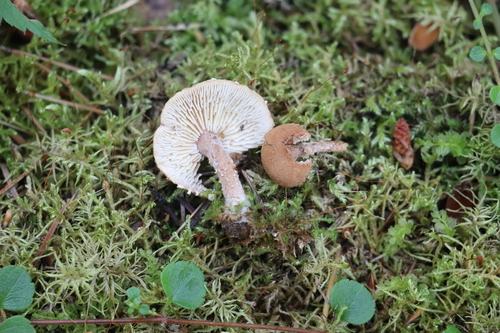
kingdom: Fungi
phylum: Basidiomycota
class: Agaricomycetes
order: Agaricales
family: Tricholomataceae
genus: Cystoderma
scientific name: Cystoderma jasonis
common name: Pine powdercap
